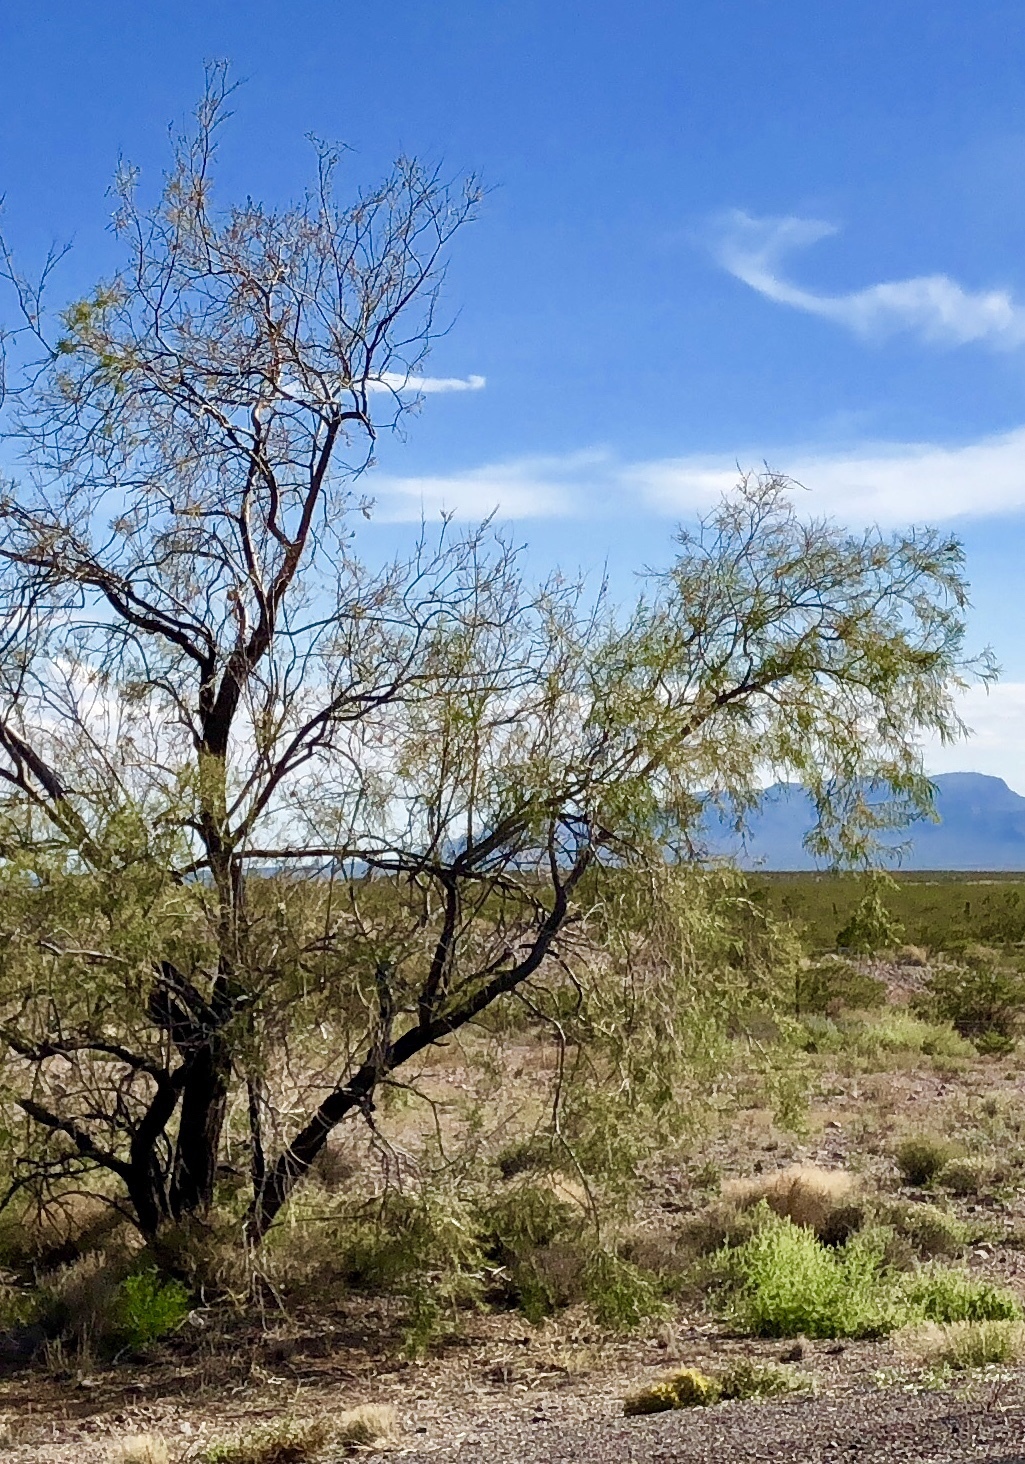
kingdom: Plantae
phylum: Tracheophyta
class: Magnoliopsida
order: Lamiales
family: Bignoniaceae
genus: Chilopsis
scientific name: Chilopsis linearis
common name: Desert-willow
